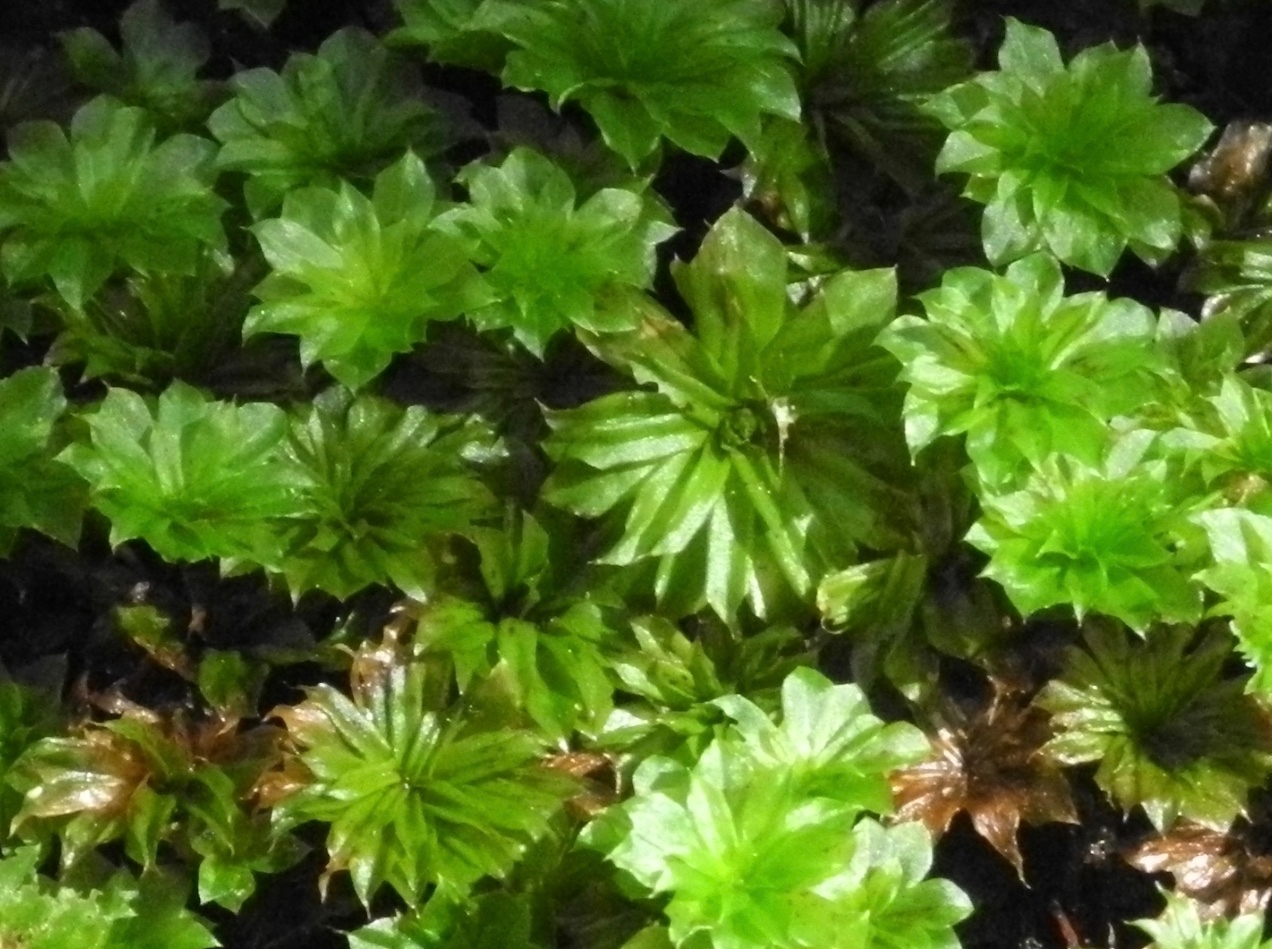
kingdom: Plantae
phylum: Bryophyta
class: Bryopsida
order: Bryales
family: Bryaceae
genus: Rhodobryum
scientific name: Rhodobryum ontariense
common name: Ontario rhodobryum moss
